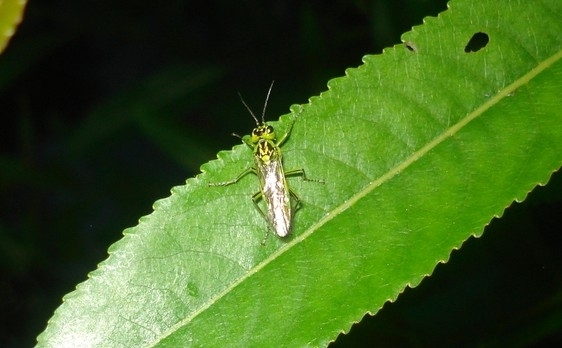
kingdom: Animalia
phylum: Arthropoda
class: Insecta
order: Hymenoptera
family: Tenthredinidae
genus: Rhogogaster
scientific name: Rhogogaster chlorosoma
